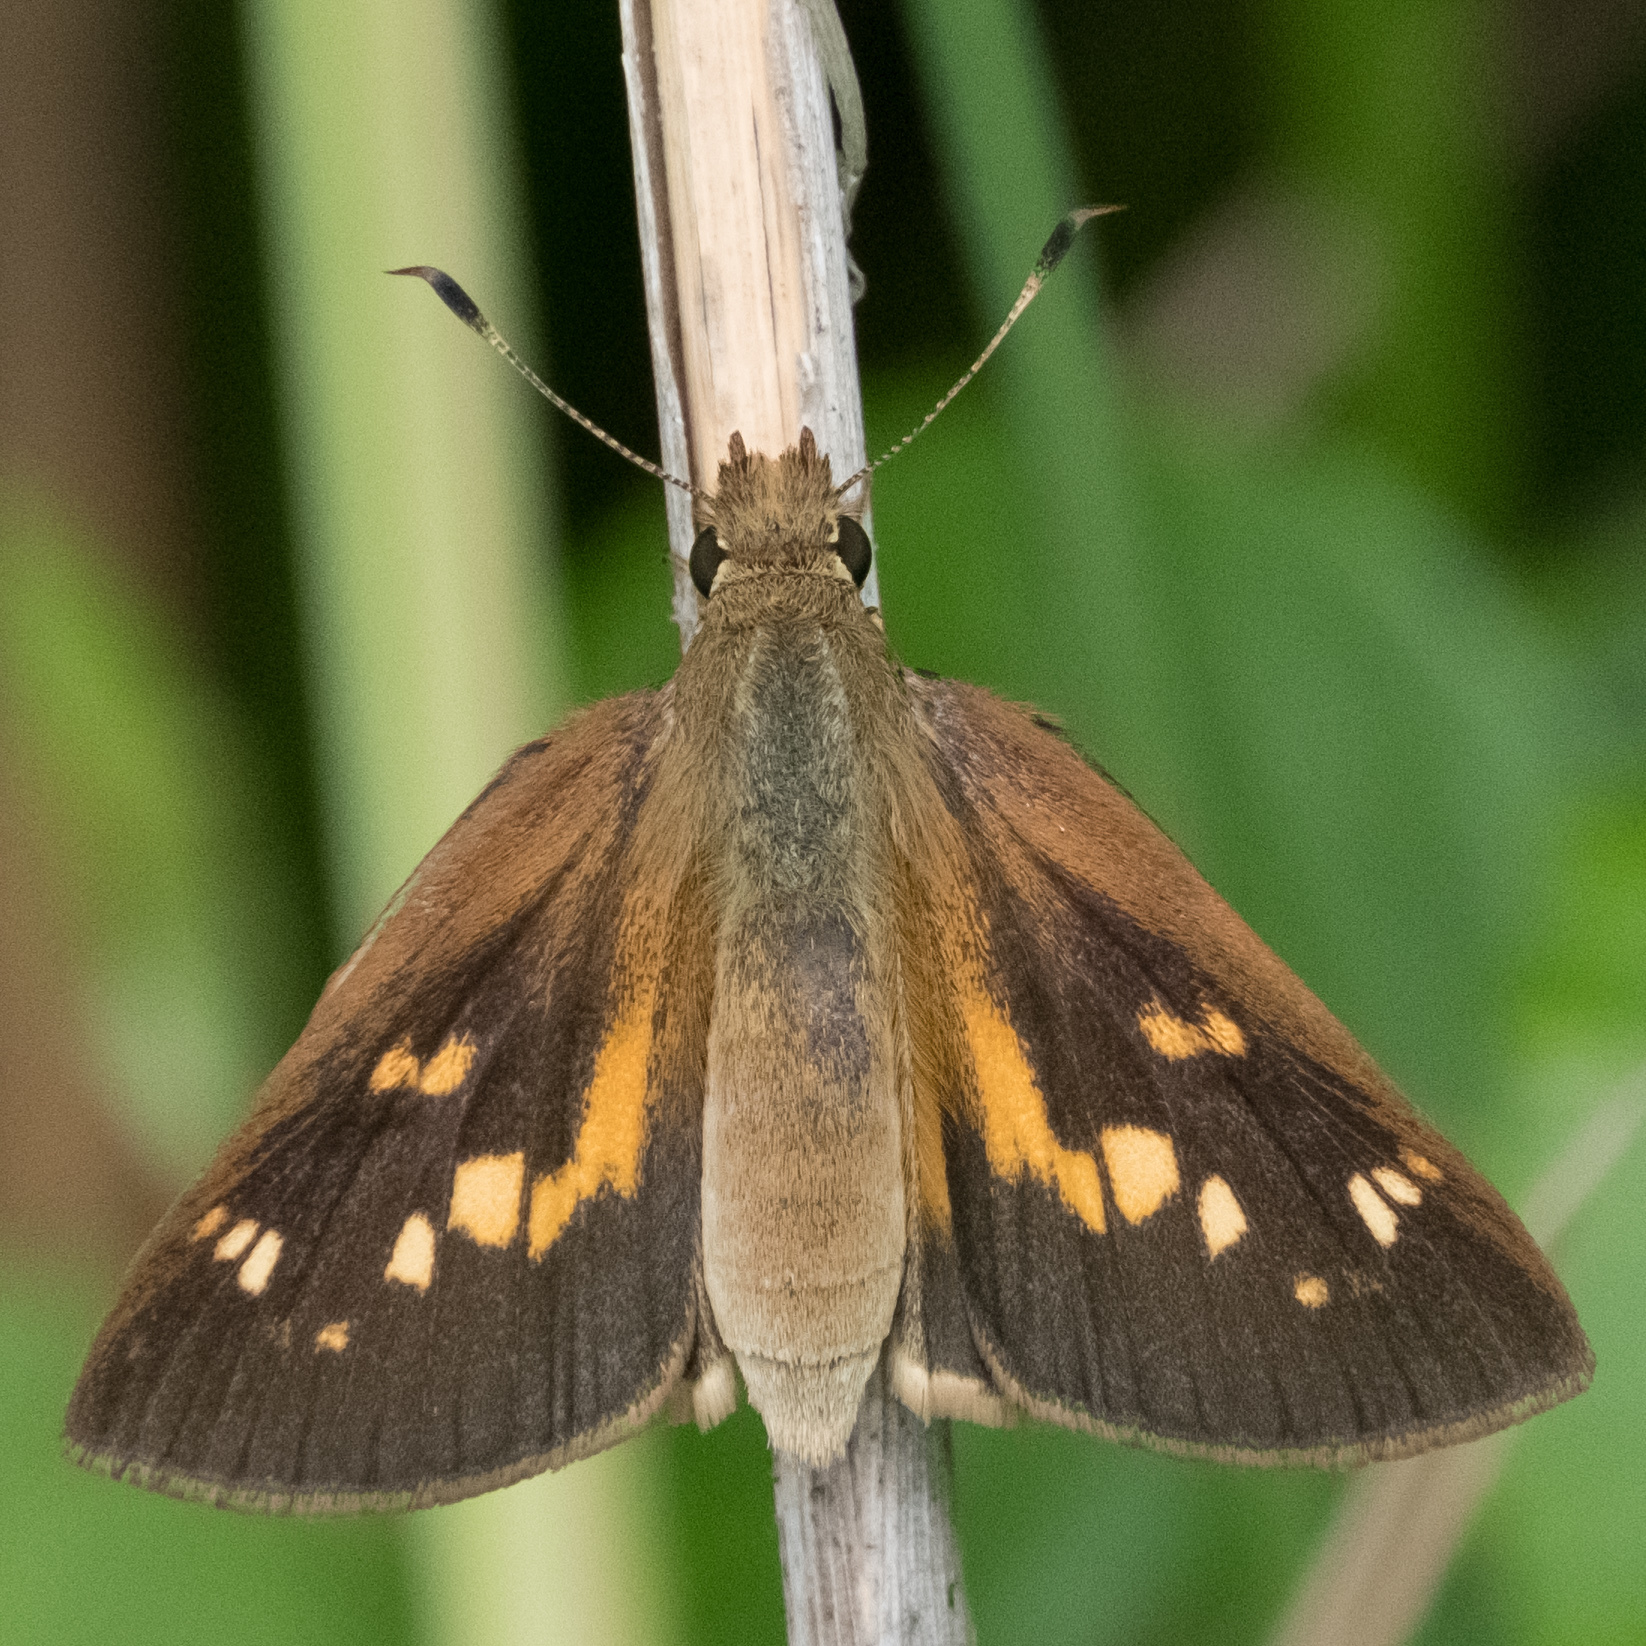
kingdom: Animalia
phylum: Arthropoda
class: Insecta
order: Lepidoptera
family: Hesperiidae
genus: Poanes
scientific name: Poanes viator
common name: Broad-winged skipper
